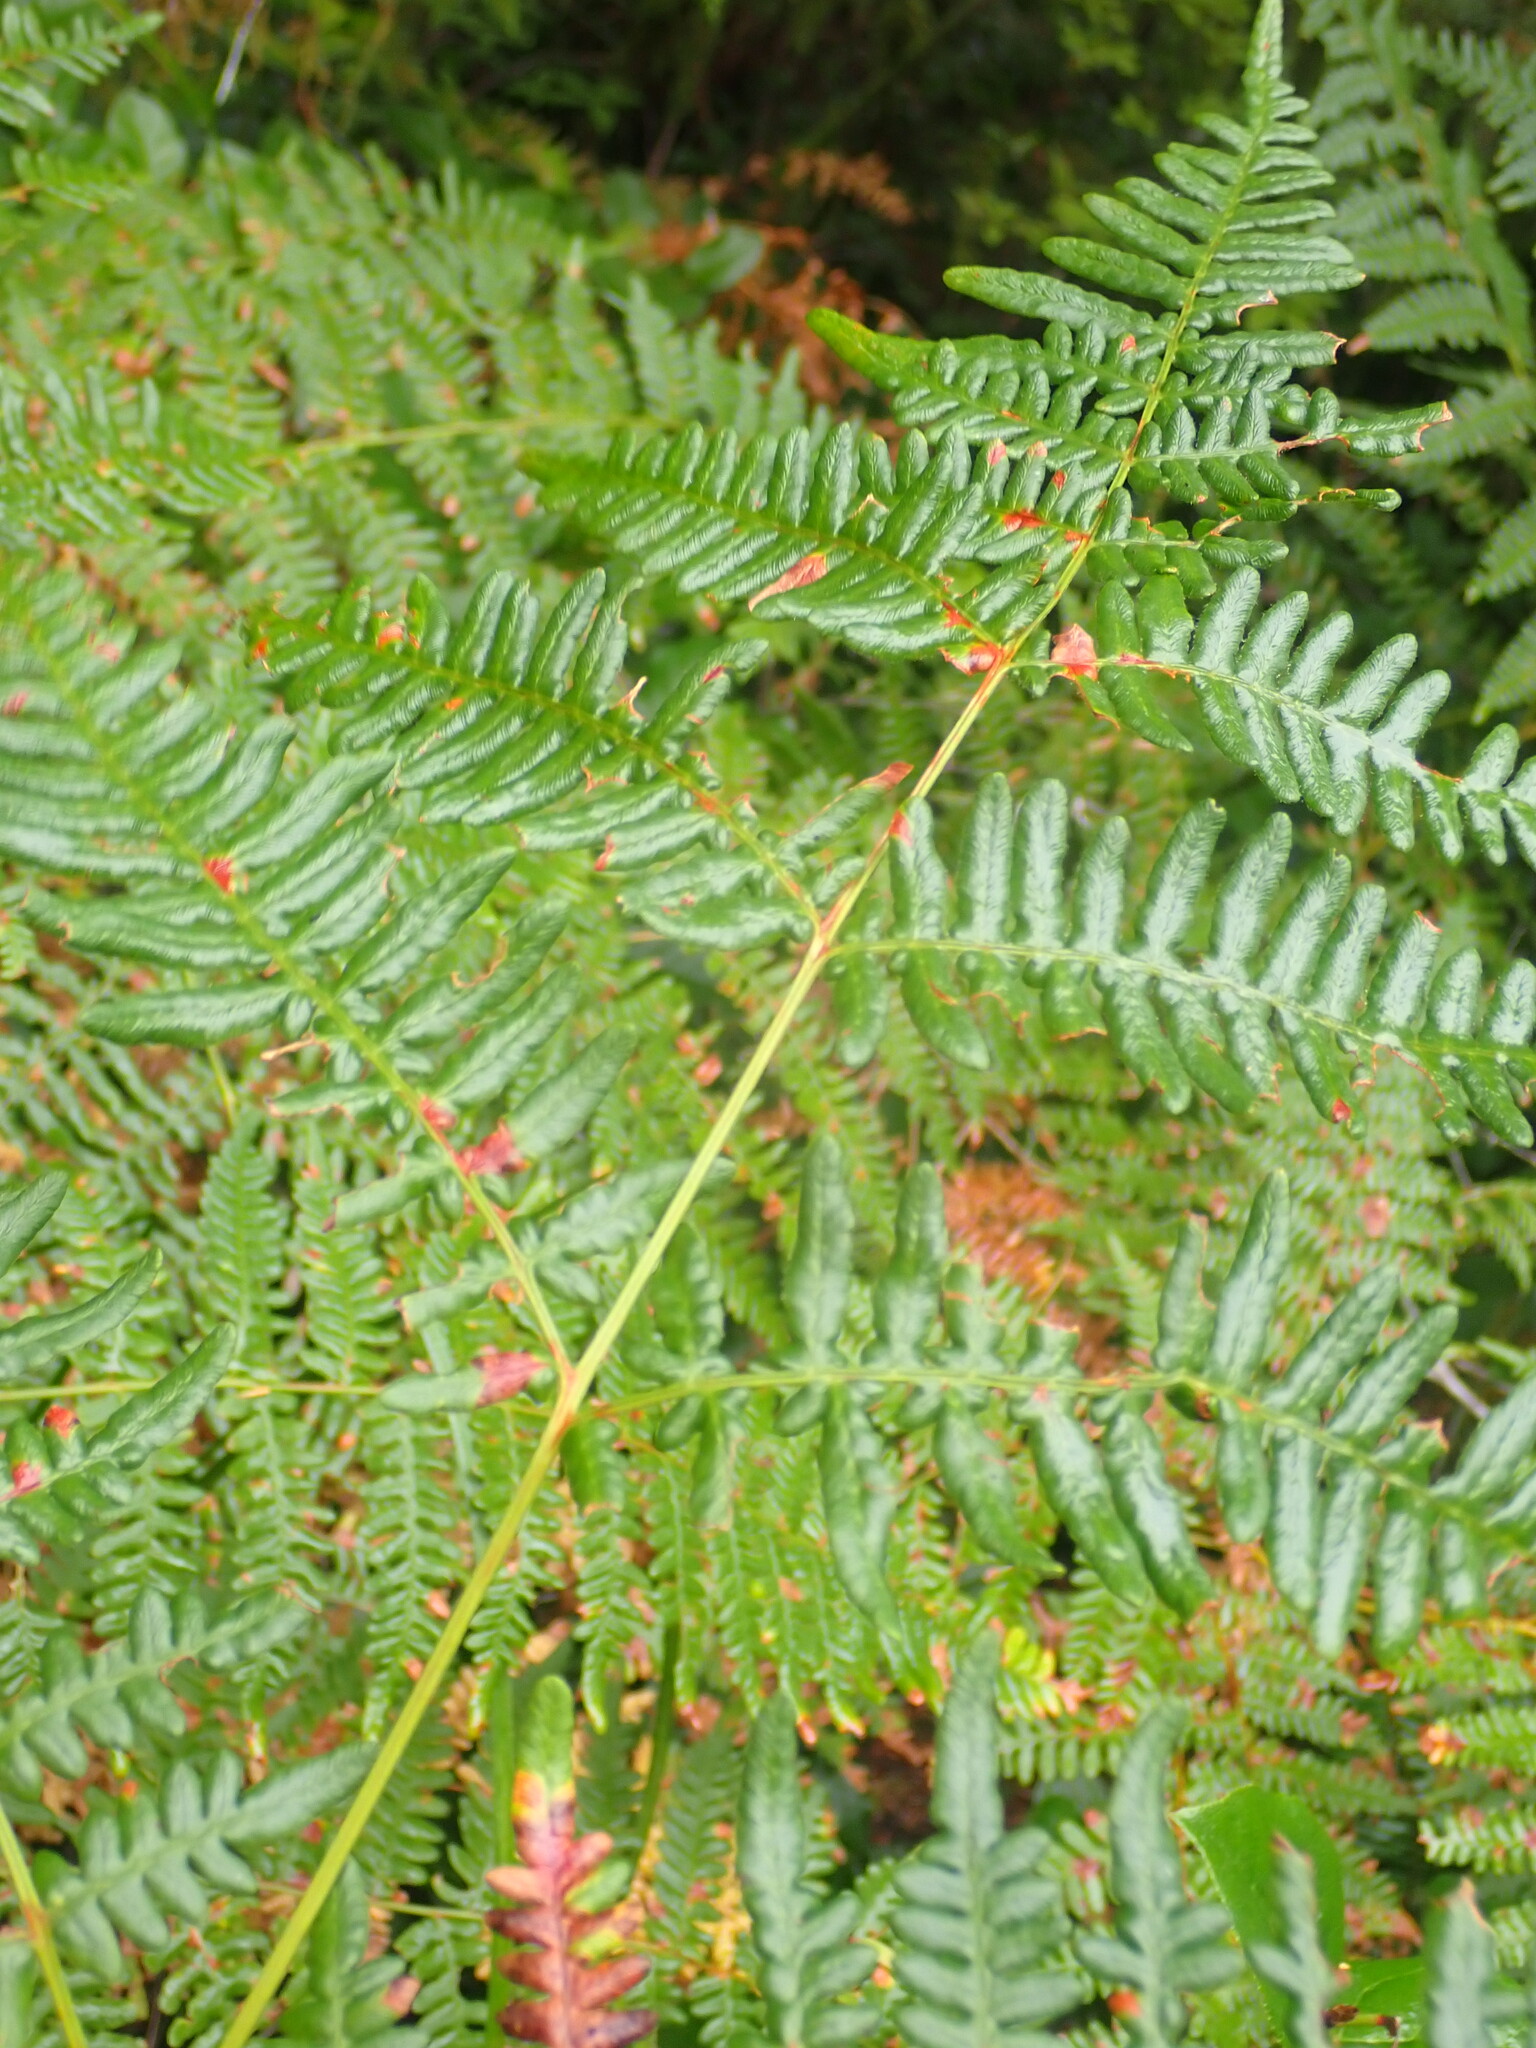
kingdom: Plantae
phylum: Tracheophyta
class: Polypodiopsida
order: Polypodiales
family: Dennstaedtiaceae
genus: Pteridium
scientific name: Pteridium aquilinum
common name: Bracken
